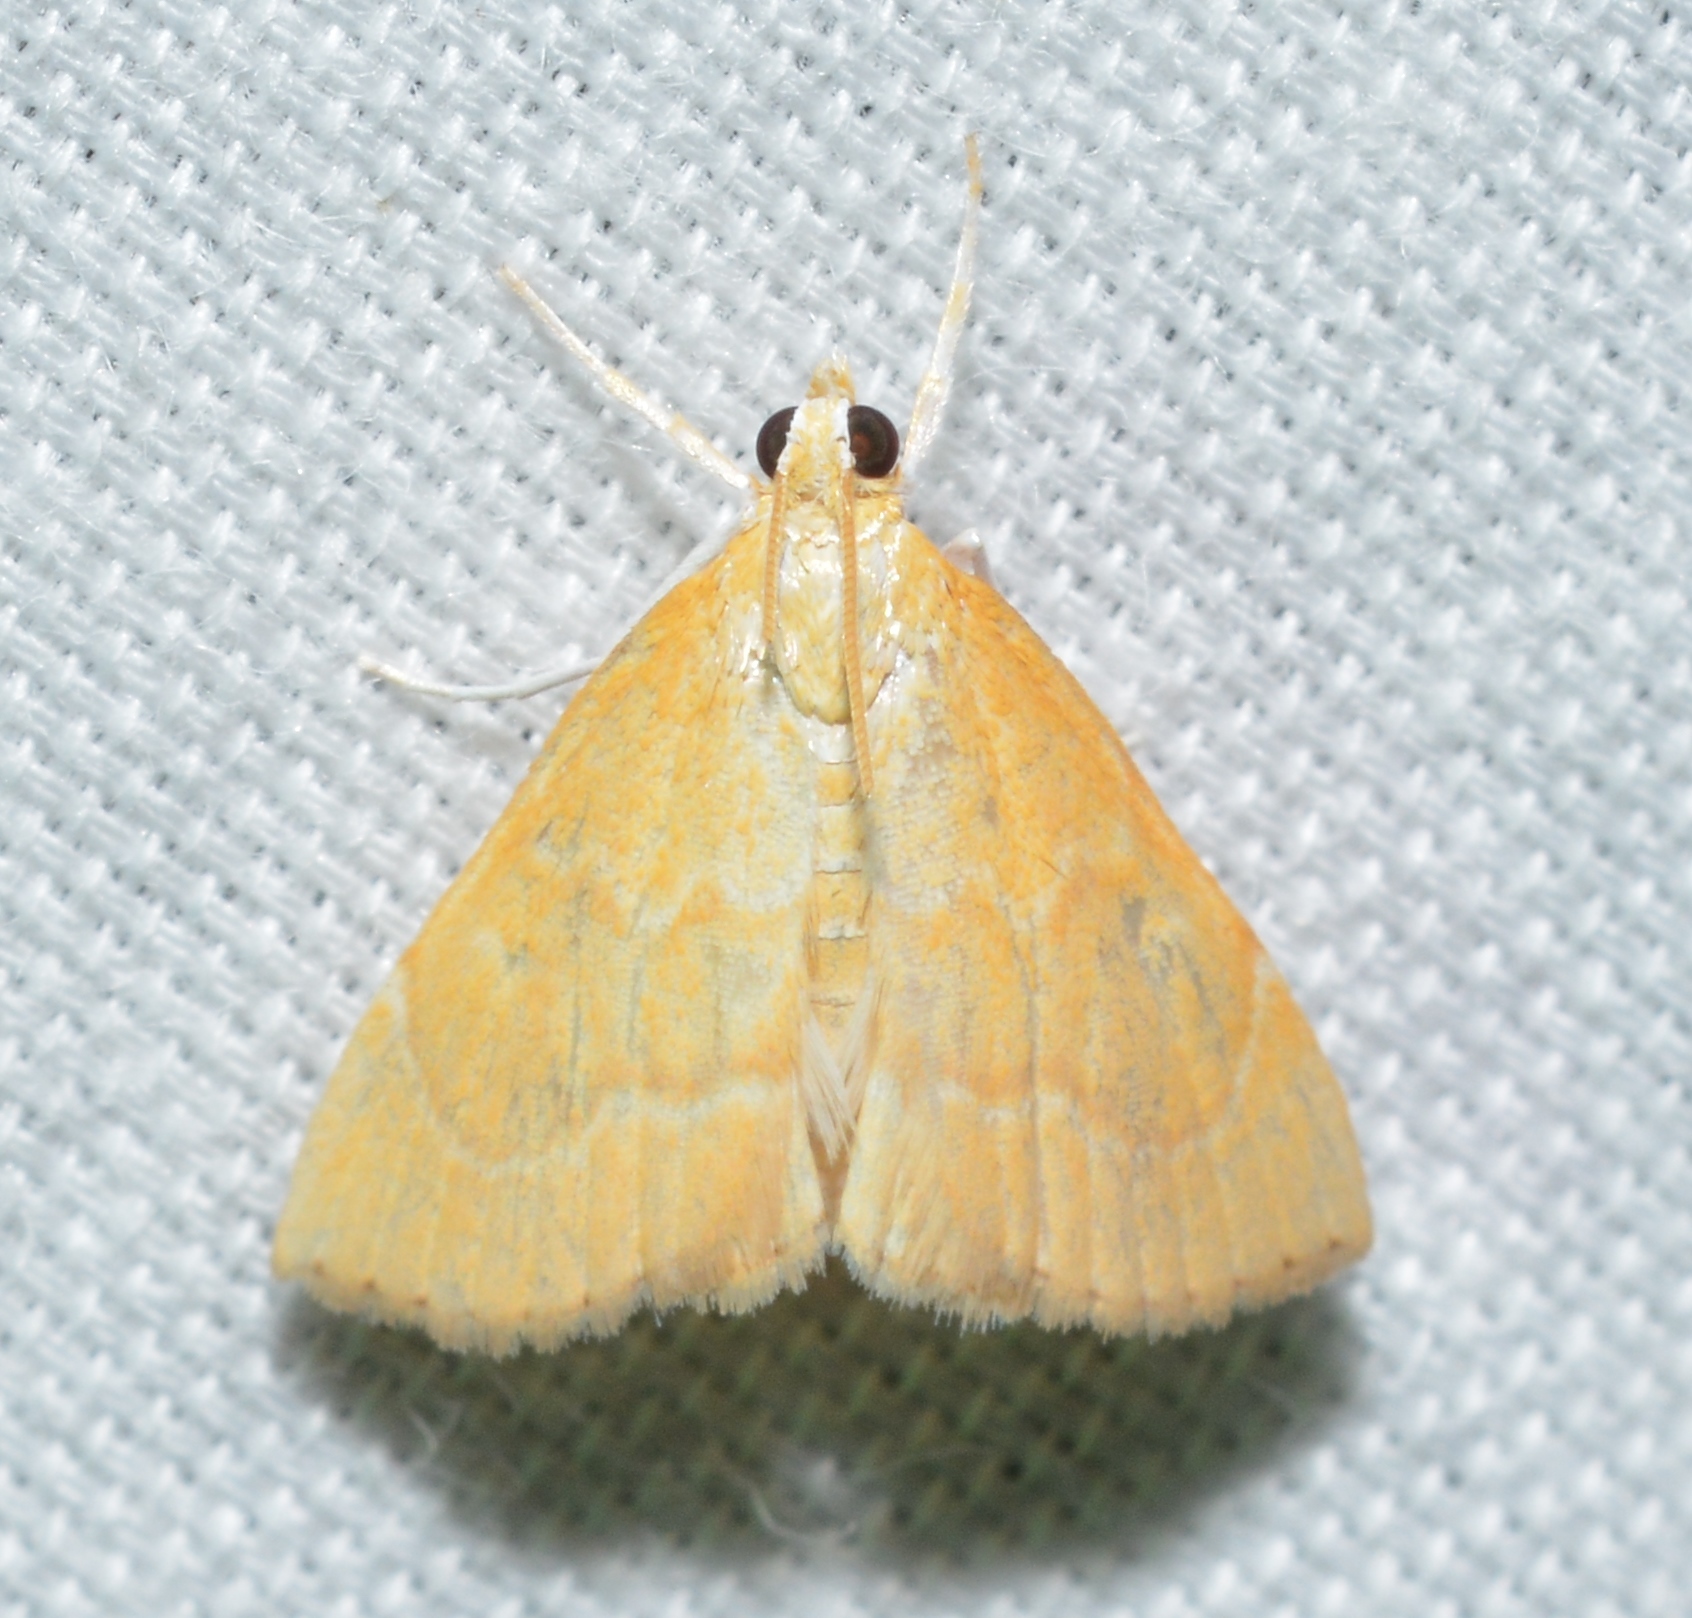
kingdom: Animalia
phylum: Arthropoda
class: Insecta
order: Lepidoptera
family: Crambidae
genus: Glaphyria
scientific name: Glaphyria invisalis
